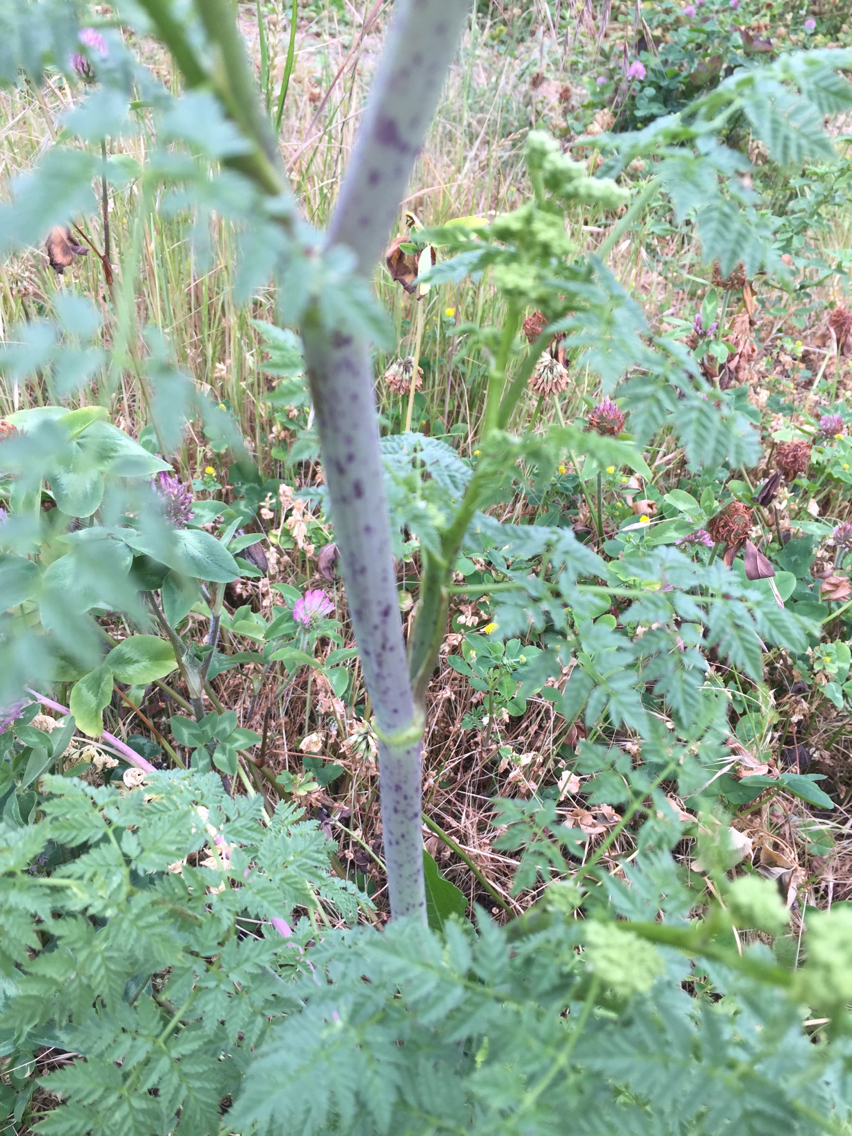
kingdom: Plantae
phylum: Tracheophyta
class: Magnoliopsida
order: Apiales
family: Apiaceae
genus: Conium
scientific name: Conium maculatum
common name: Hemlock
